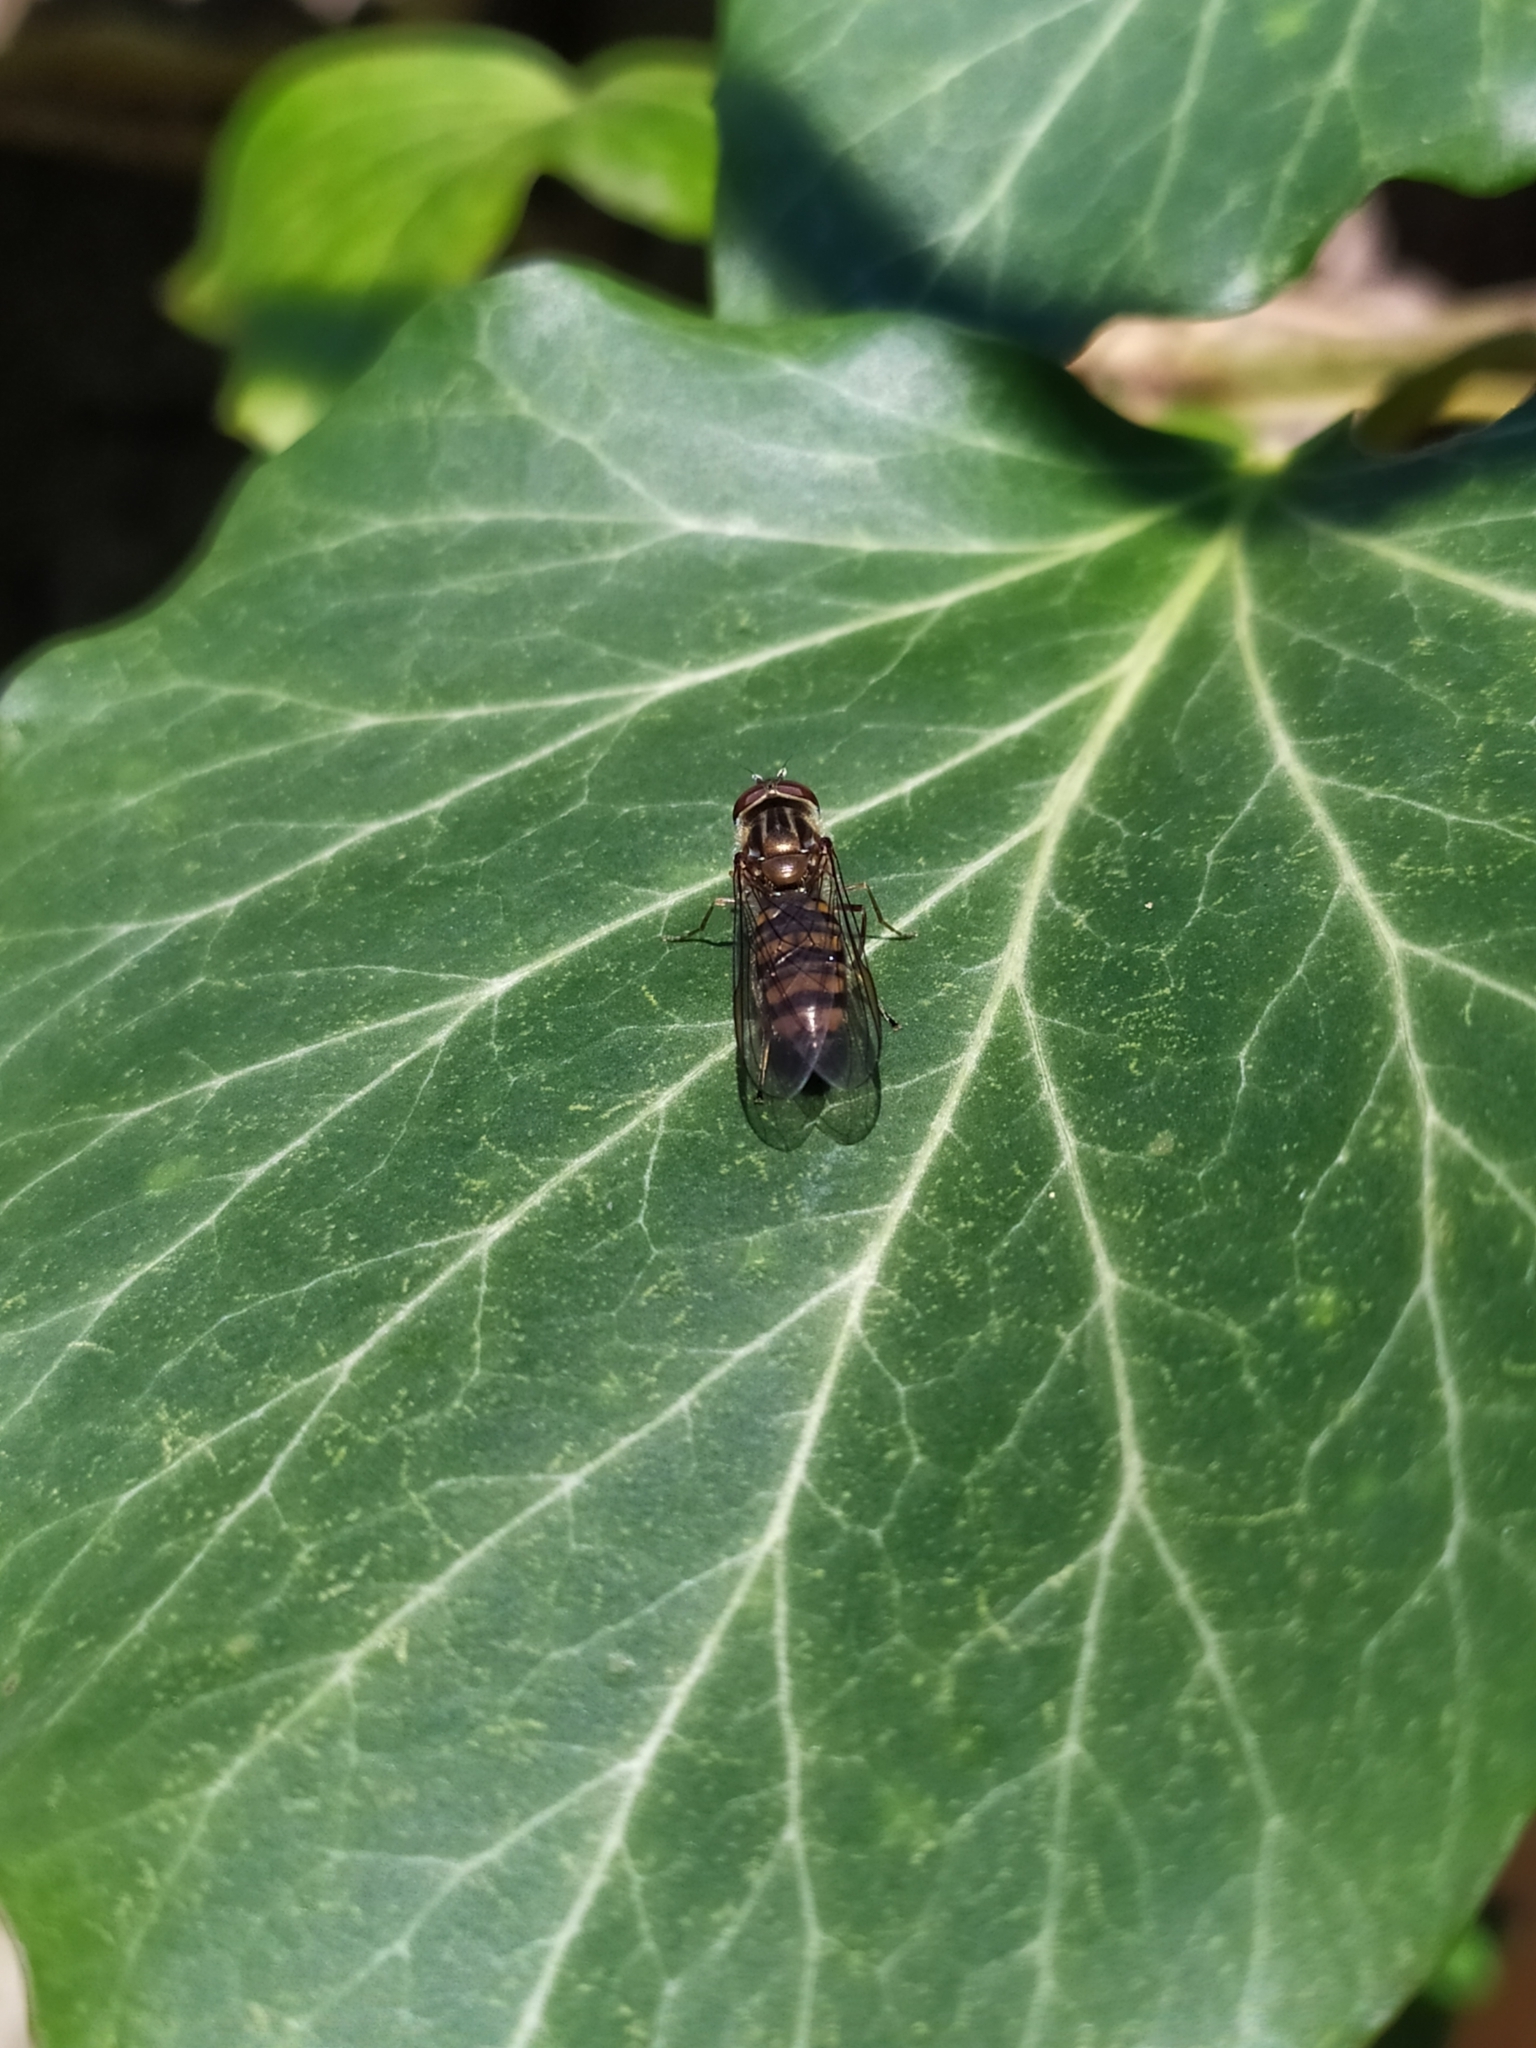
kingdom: Animalia
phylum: Arthropoda
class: Insecta
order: Diptera
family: Syrphidae
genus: Episyrphus
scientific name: Episyrphus balteatus
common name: Marmalade hoverfly
